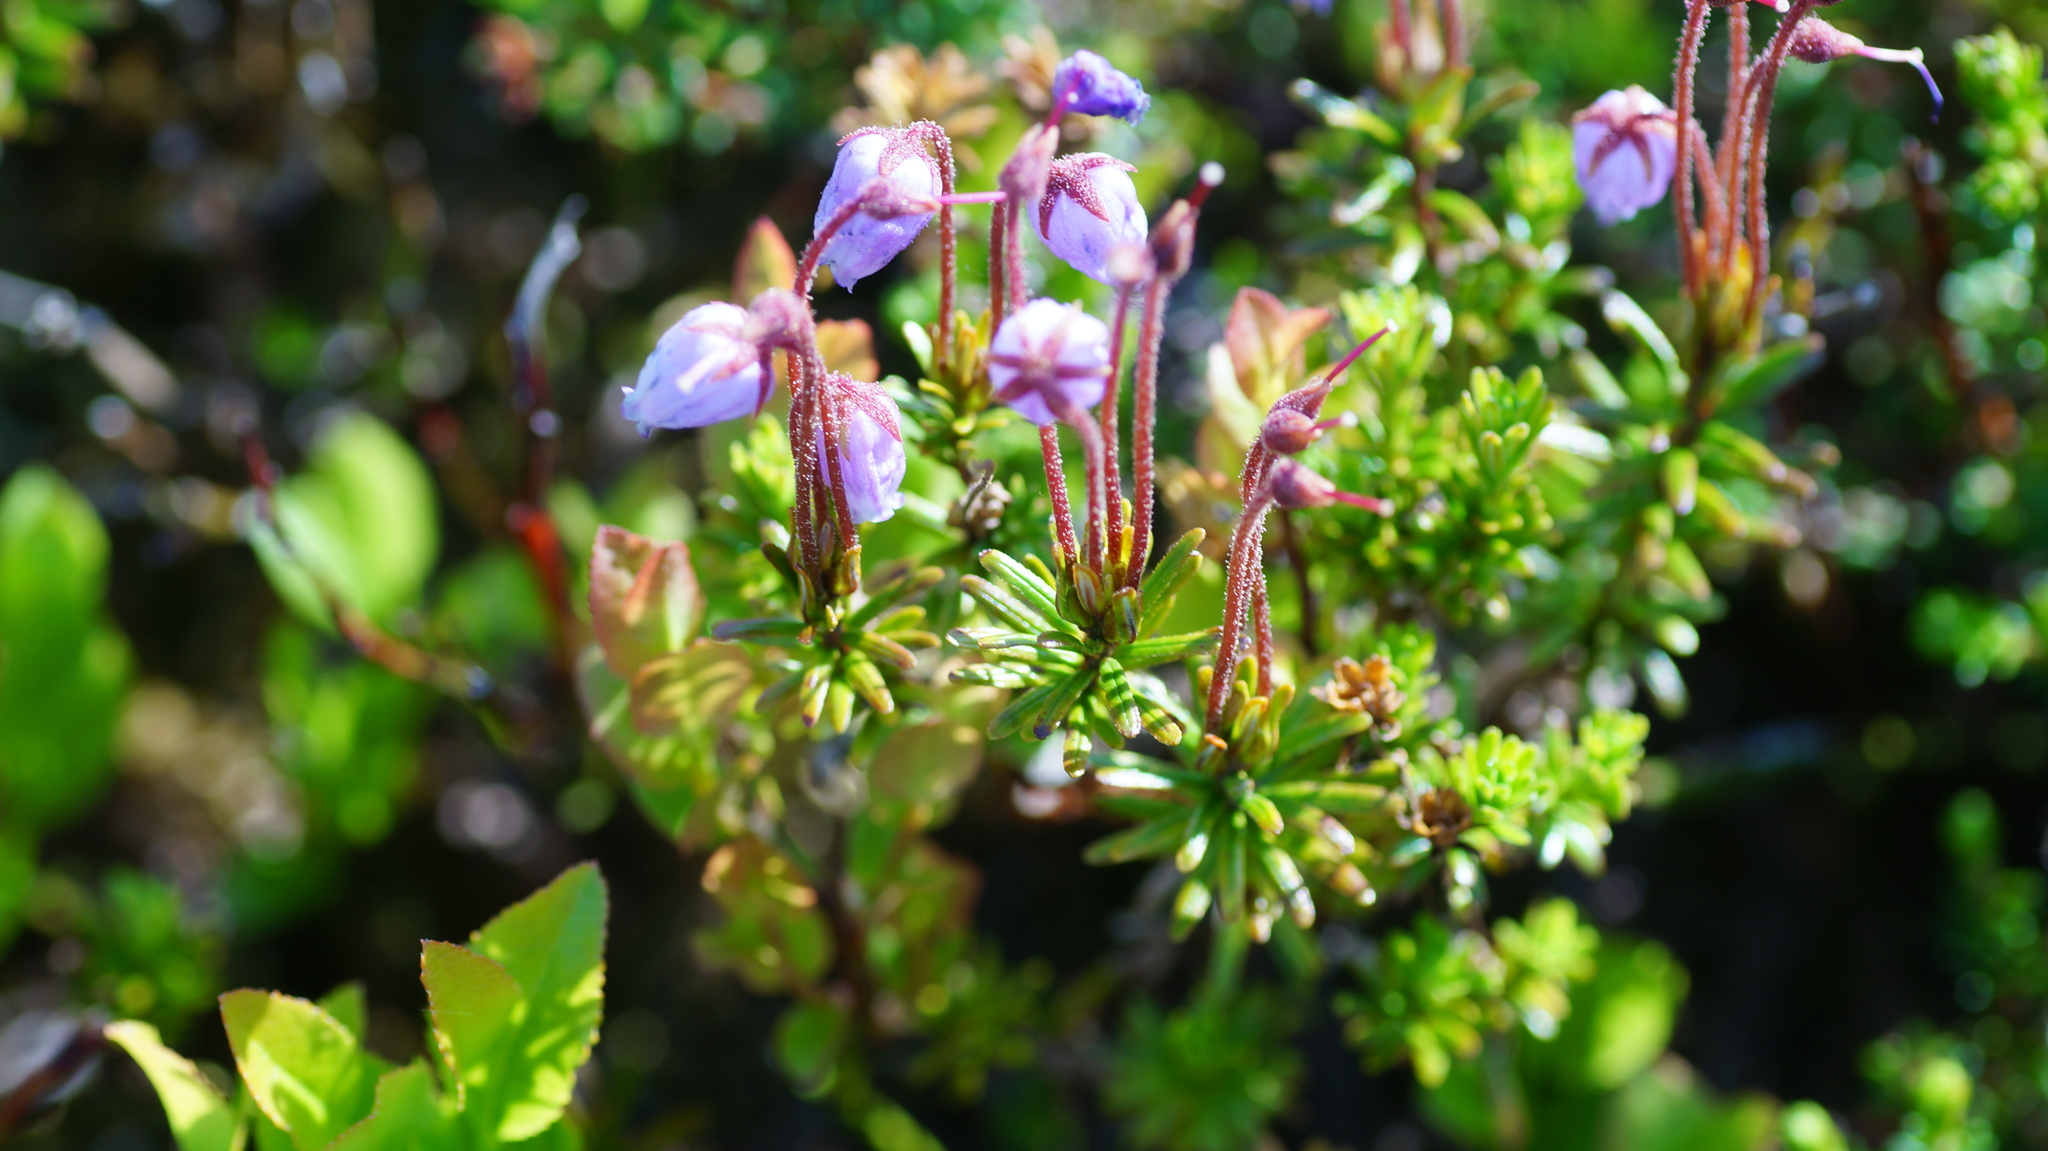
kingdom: Plantae
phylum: Tracheophyta
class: Magnoliopsida
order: Ericales
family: Ericaceae
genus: Phyllodoce
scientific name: Phyllodoce caerulea
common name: Blue heath
